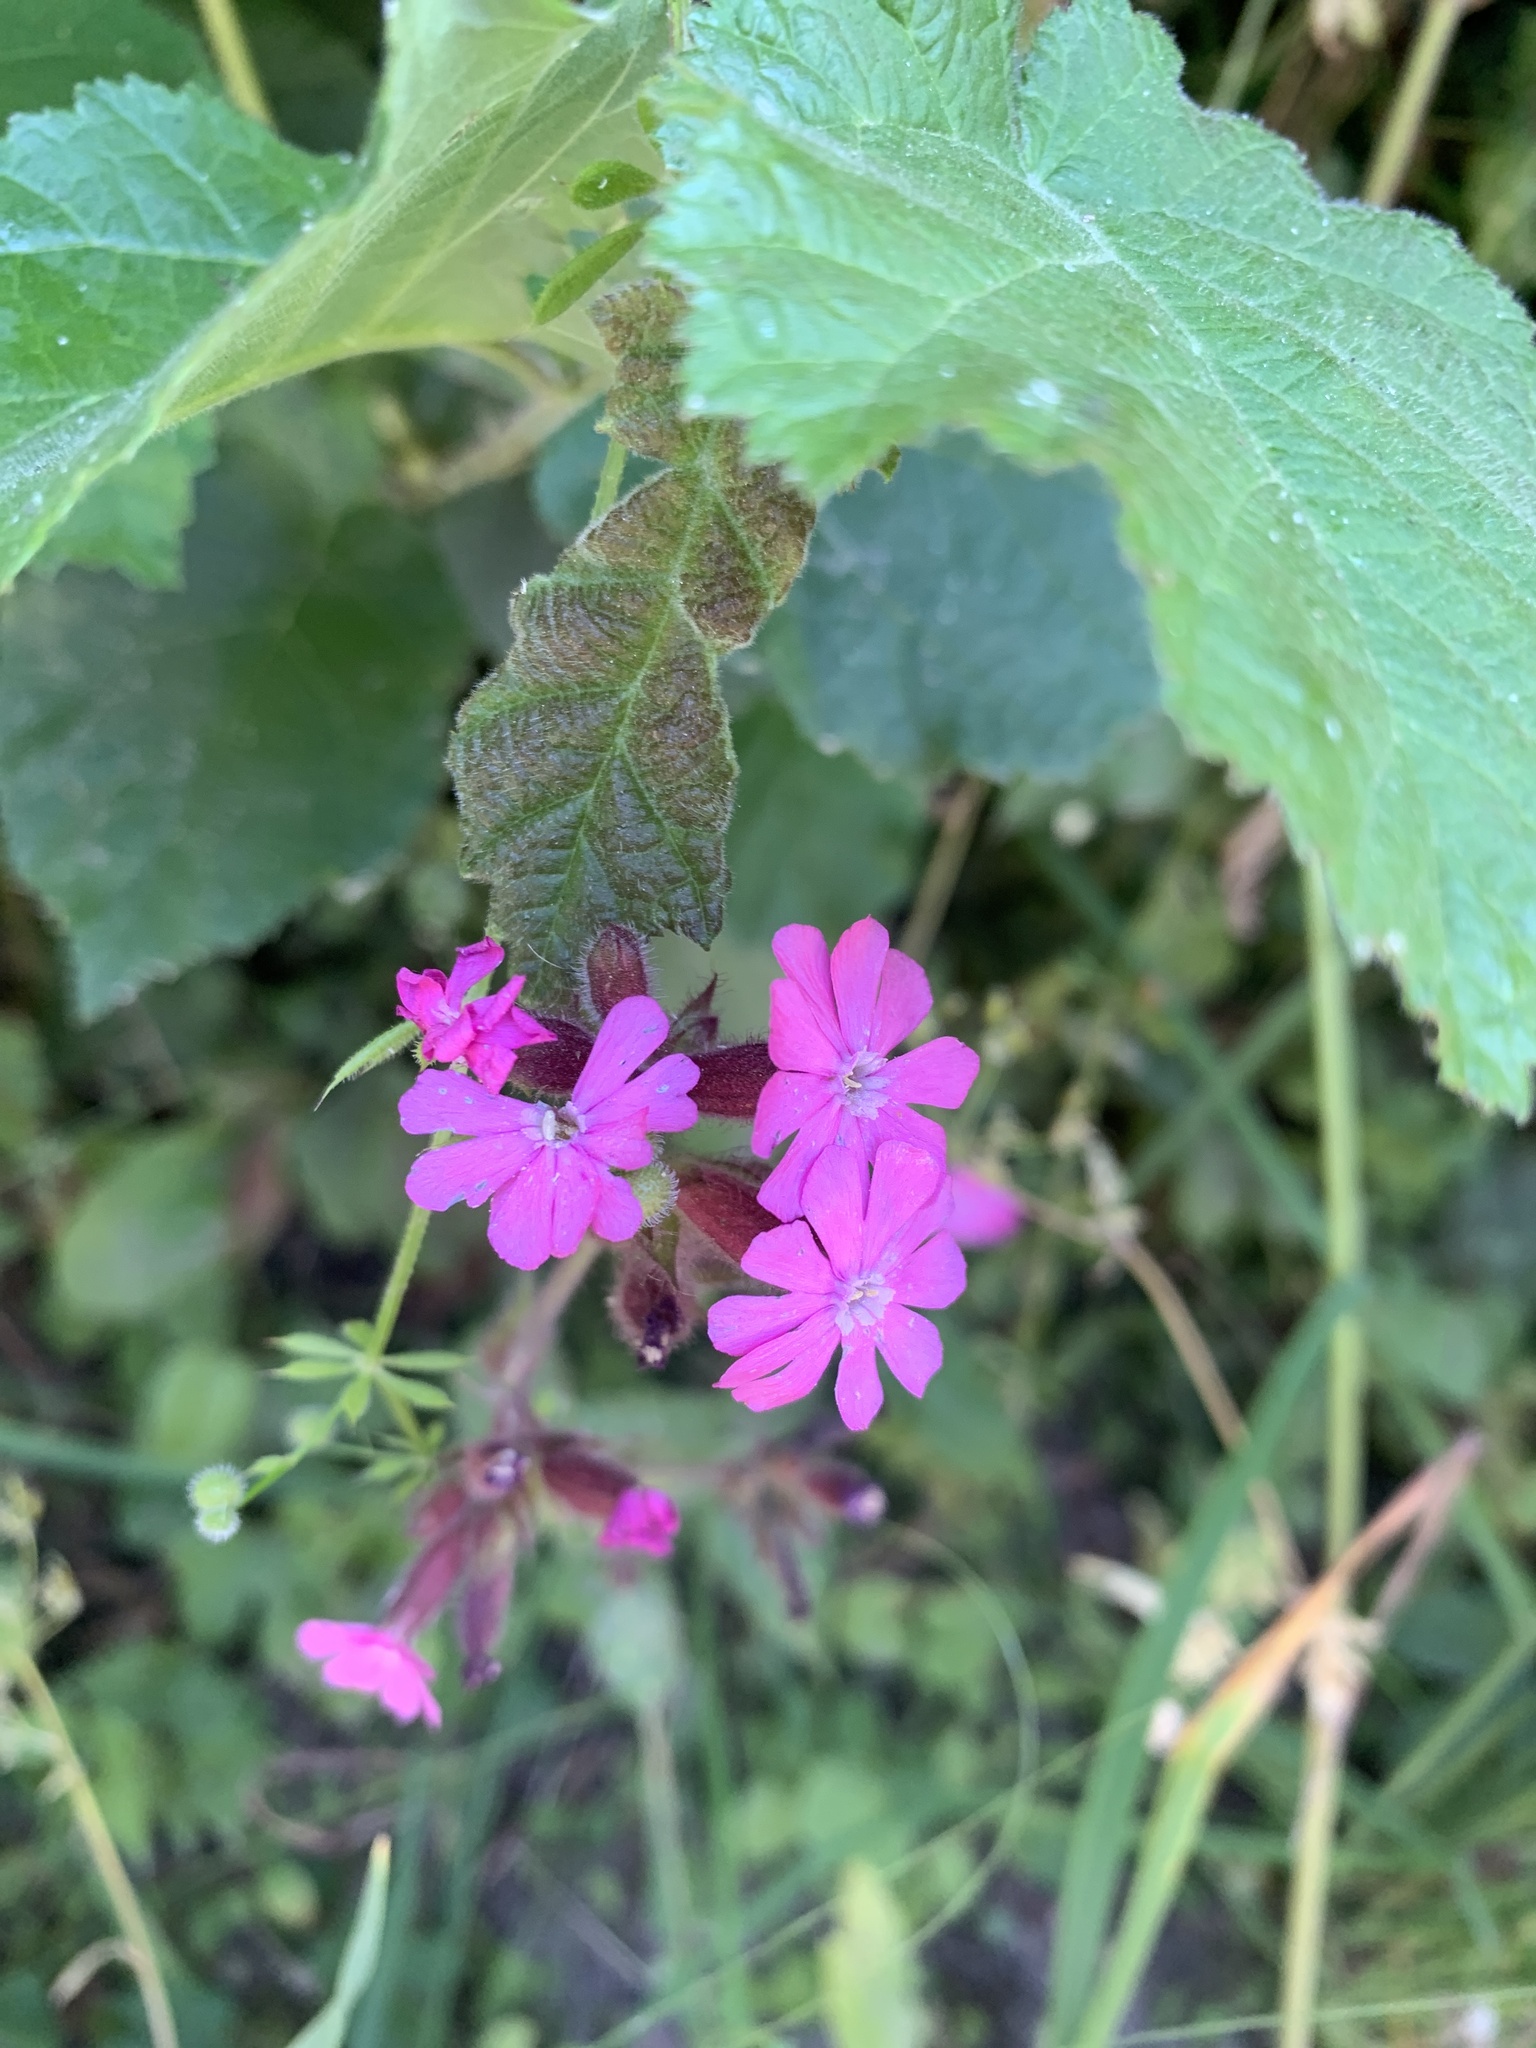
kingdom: Plantae
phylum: Tracheophyta
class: Magnoliopsida
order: Caryophyllales
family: Caryophyllaceae
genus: Silene
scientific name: Silene dioica
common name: Red campion
